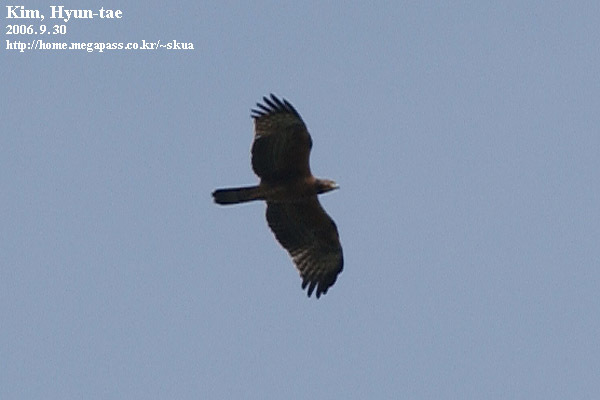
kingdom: Animalia
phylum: Chordata
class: Aves
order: Accipitriformes
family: Accipitridae
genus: Pernis
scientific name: Pernis ptilorhynchus
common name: Crested honey buzzard
